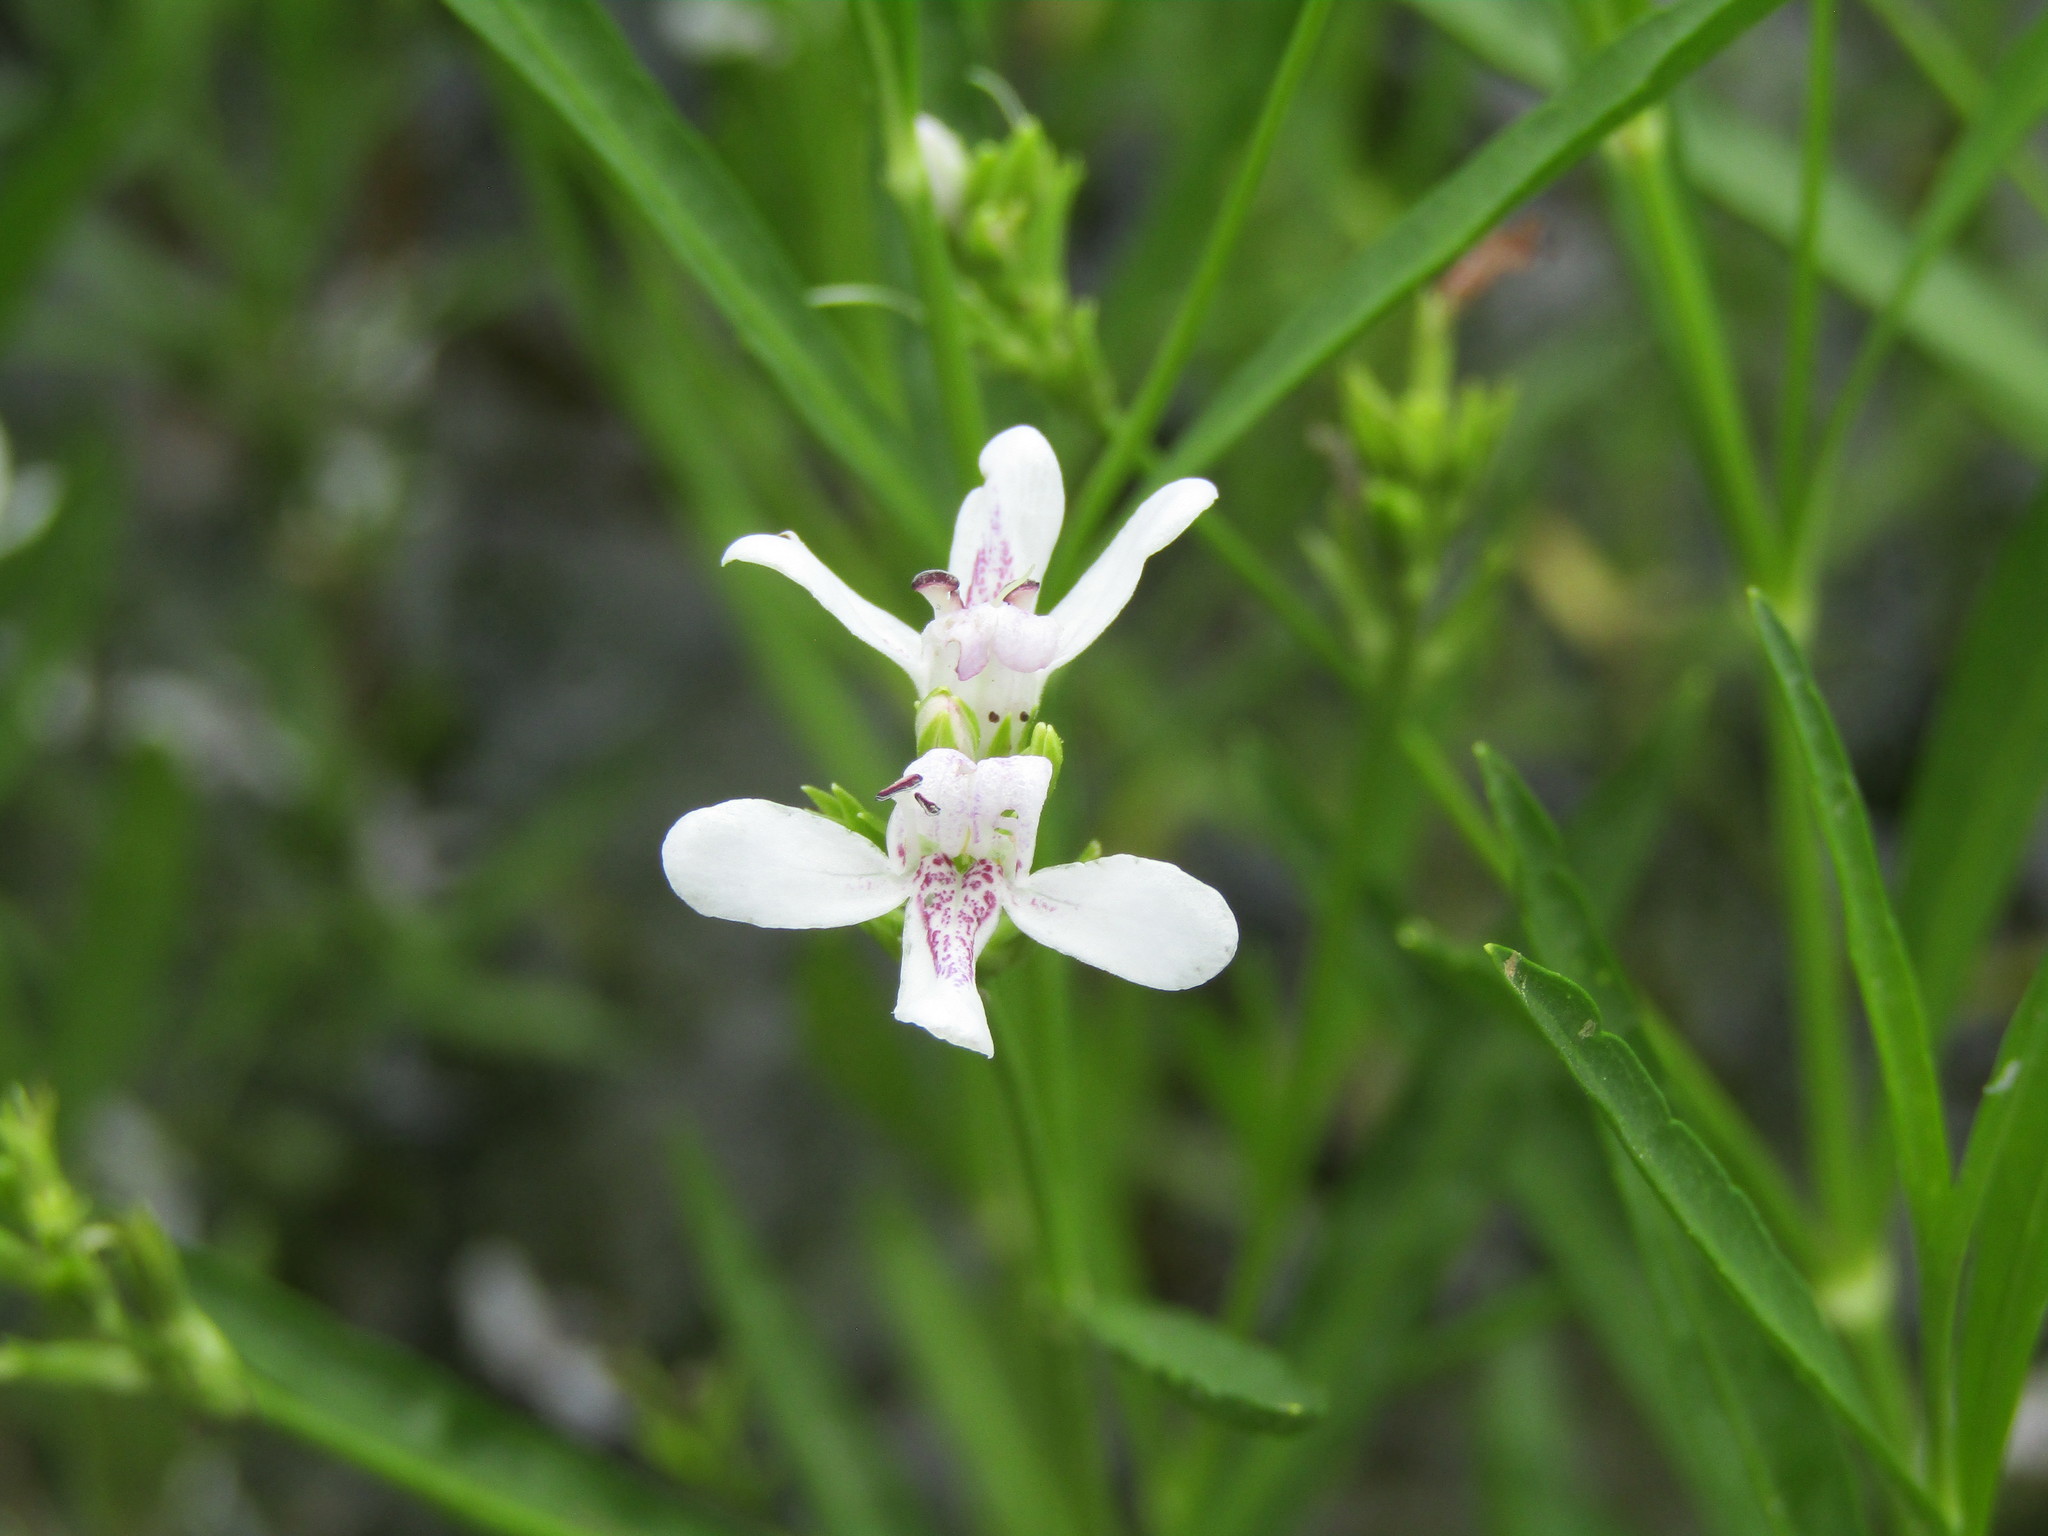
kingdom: Plantae
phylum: Tracheophyta
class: Magnoliopsida
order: Lamiales
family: Acanthaceae
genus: Dianthera
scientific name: Dianthera americana
